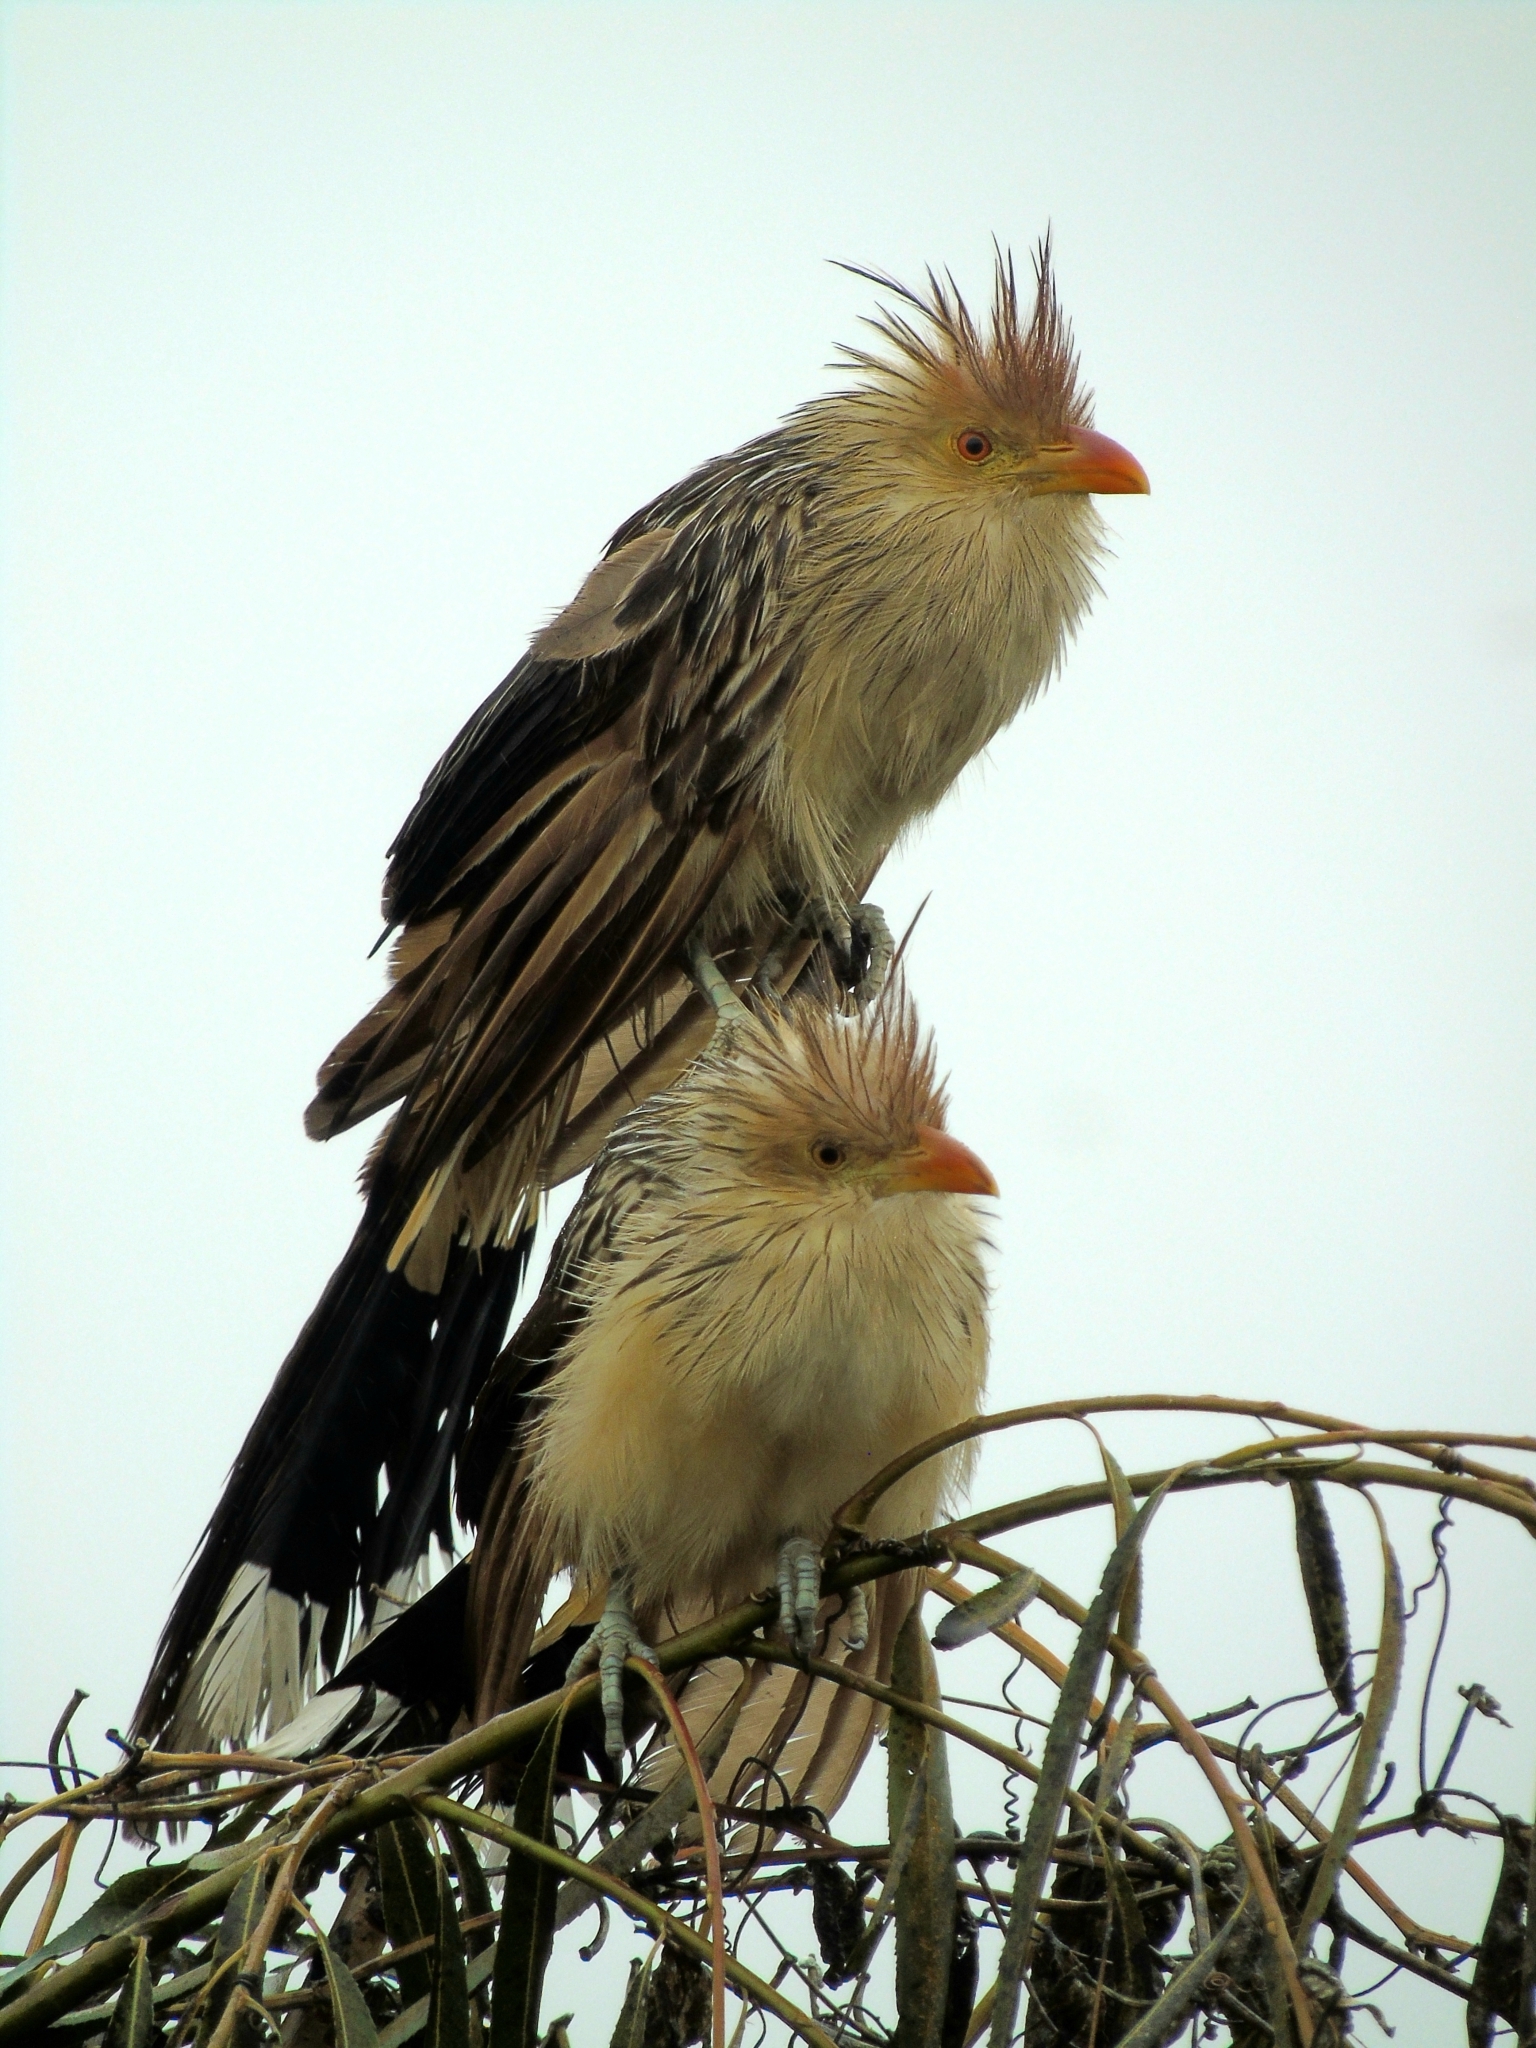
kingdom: Animalia
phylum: Chordata
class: Aves
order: Cuculiformes
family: Cuculidae
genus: Guira
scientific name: Guira guira
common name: Guira cuckoo
